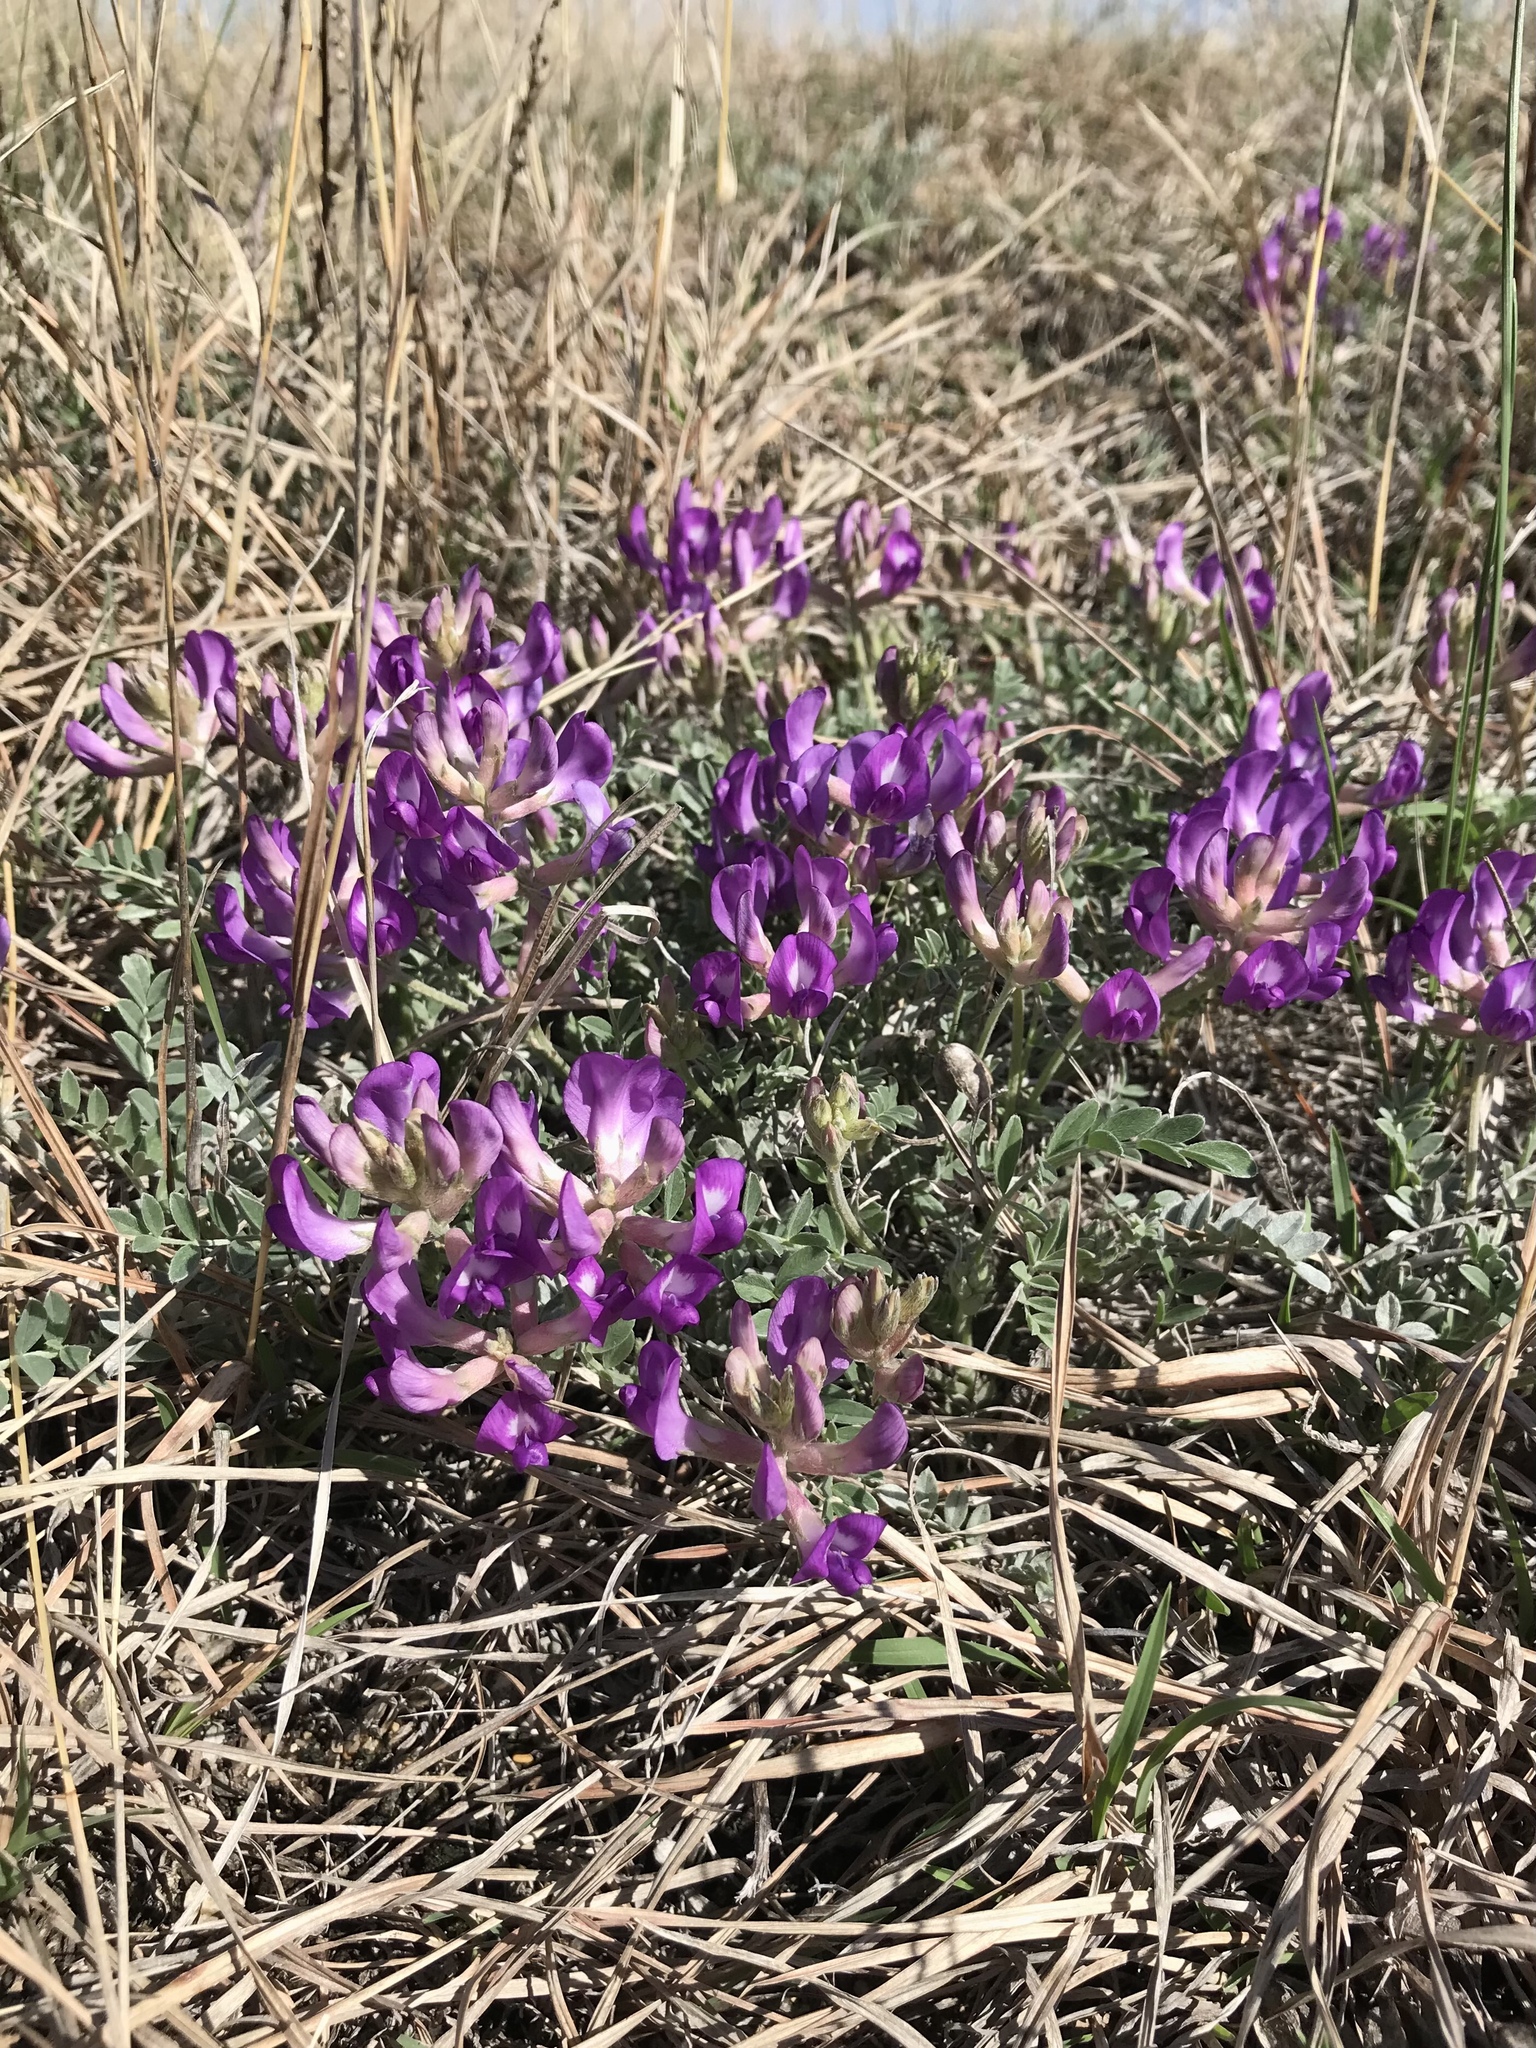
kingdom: Plantae
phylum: Tracheophyta
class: Magnoliopsida
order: Fabales
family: Fabaceae
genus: Astragalus
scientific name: Astragalus missouriensis
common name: Missouri milk-vetch
